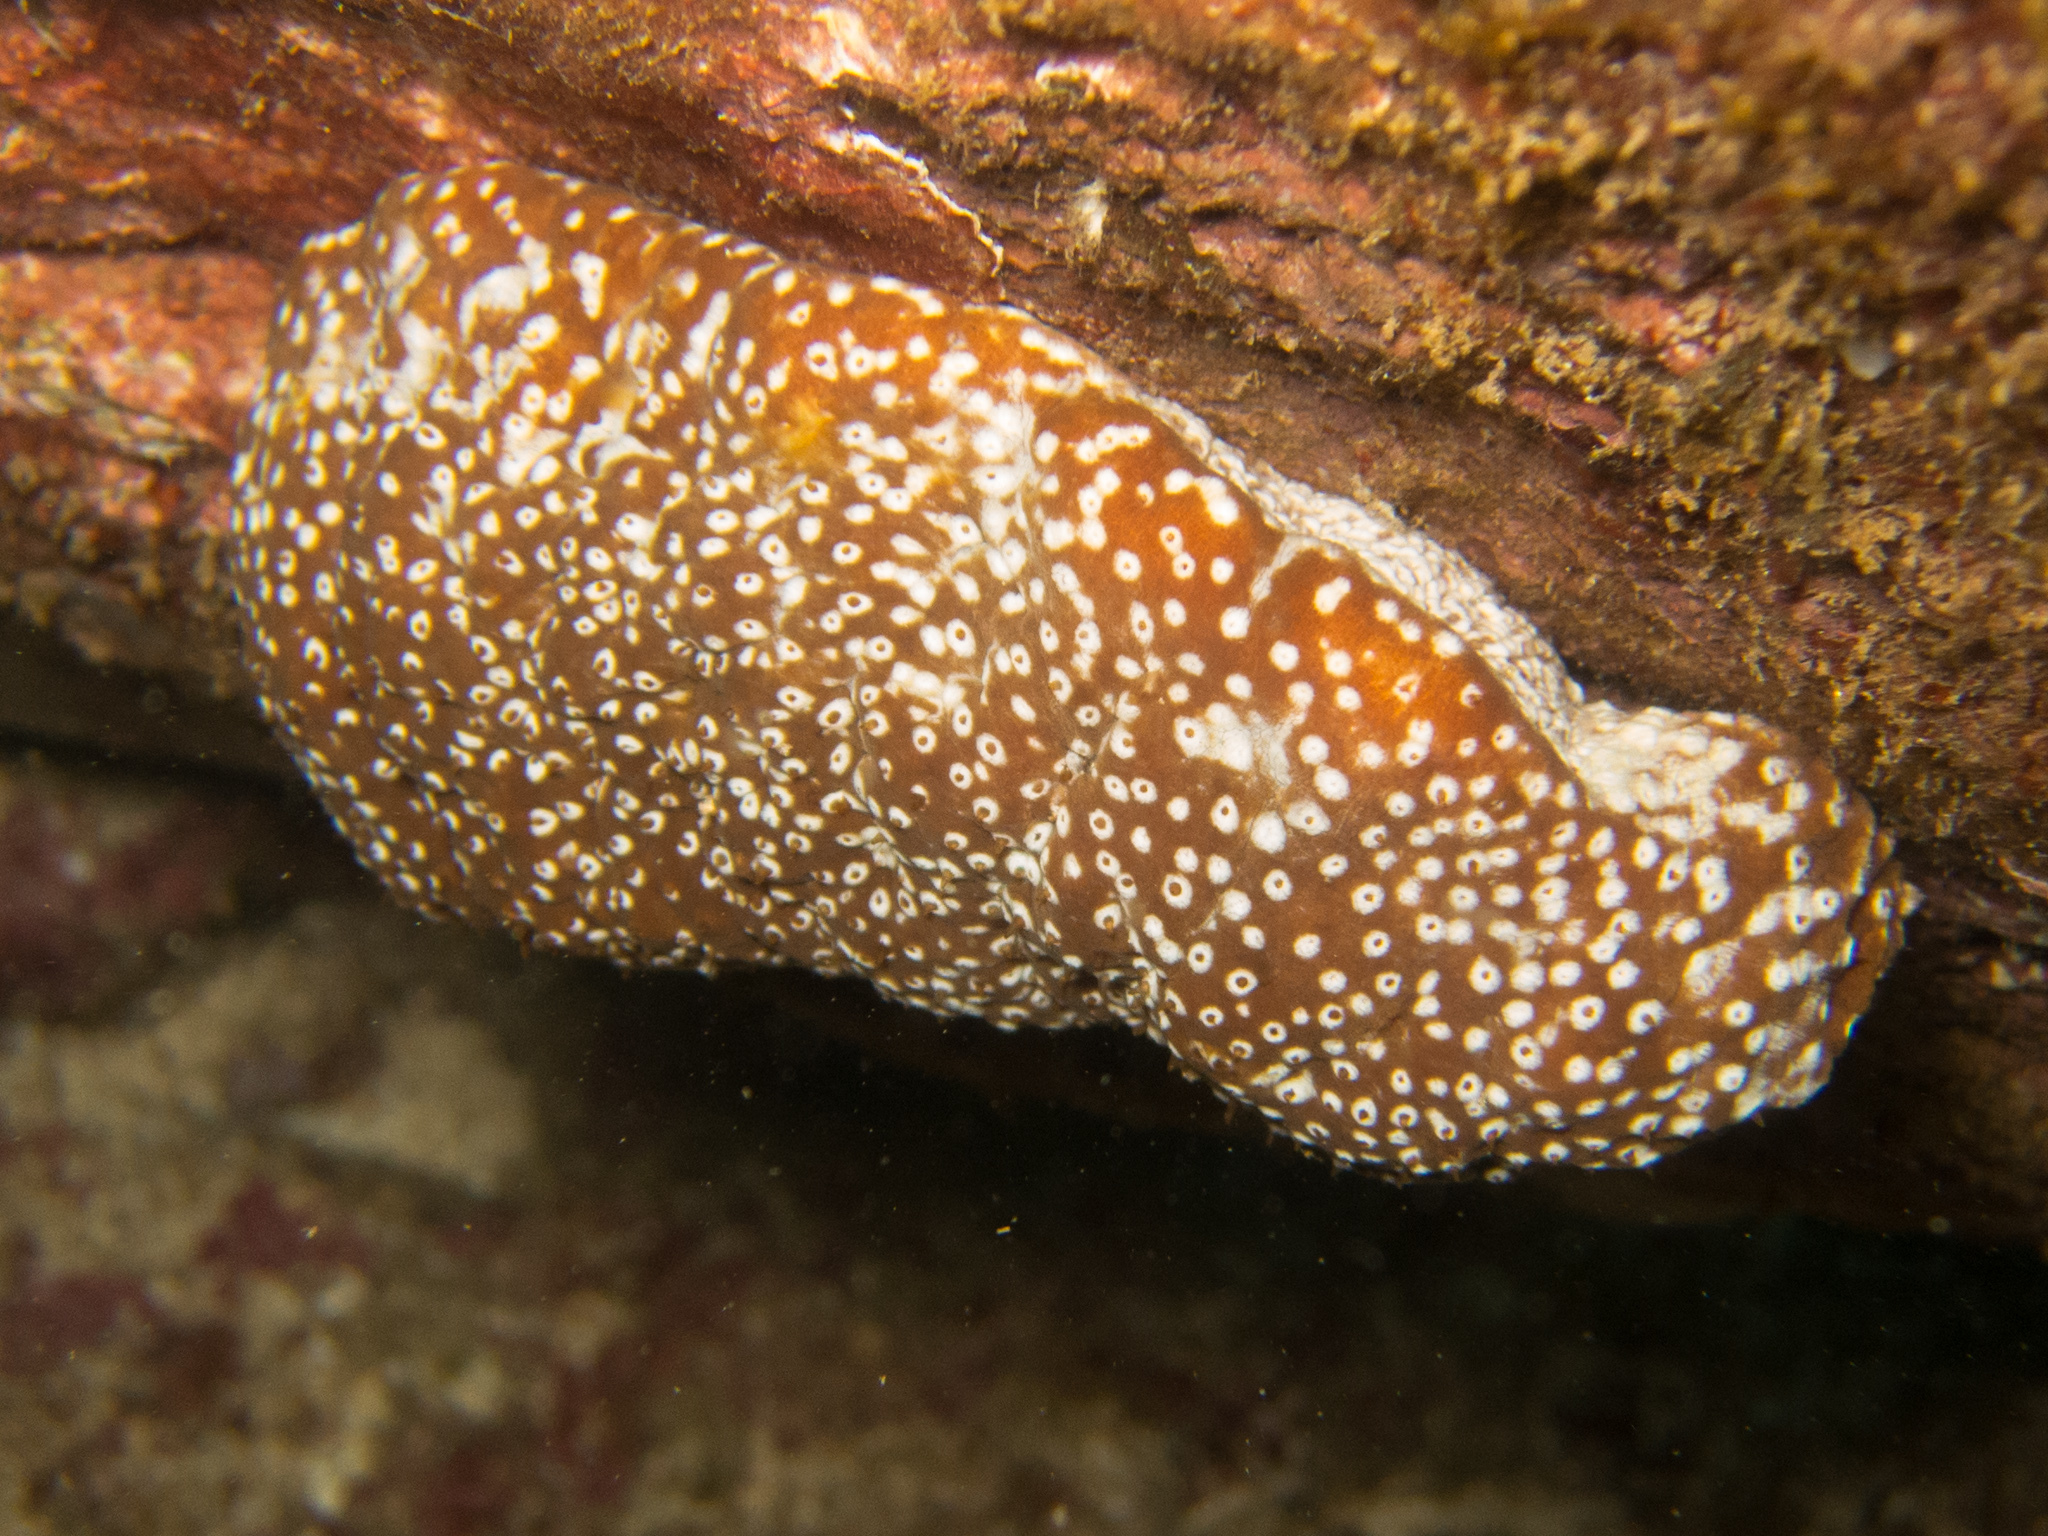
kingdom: Animalia
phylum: Echinodermata
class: Holothuroidea
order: Holothuriida
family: Holothuriidae
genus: Actinopyga
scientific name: Actinopyga varians
